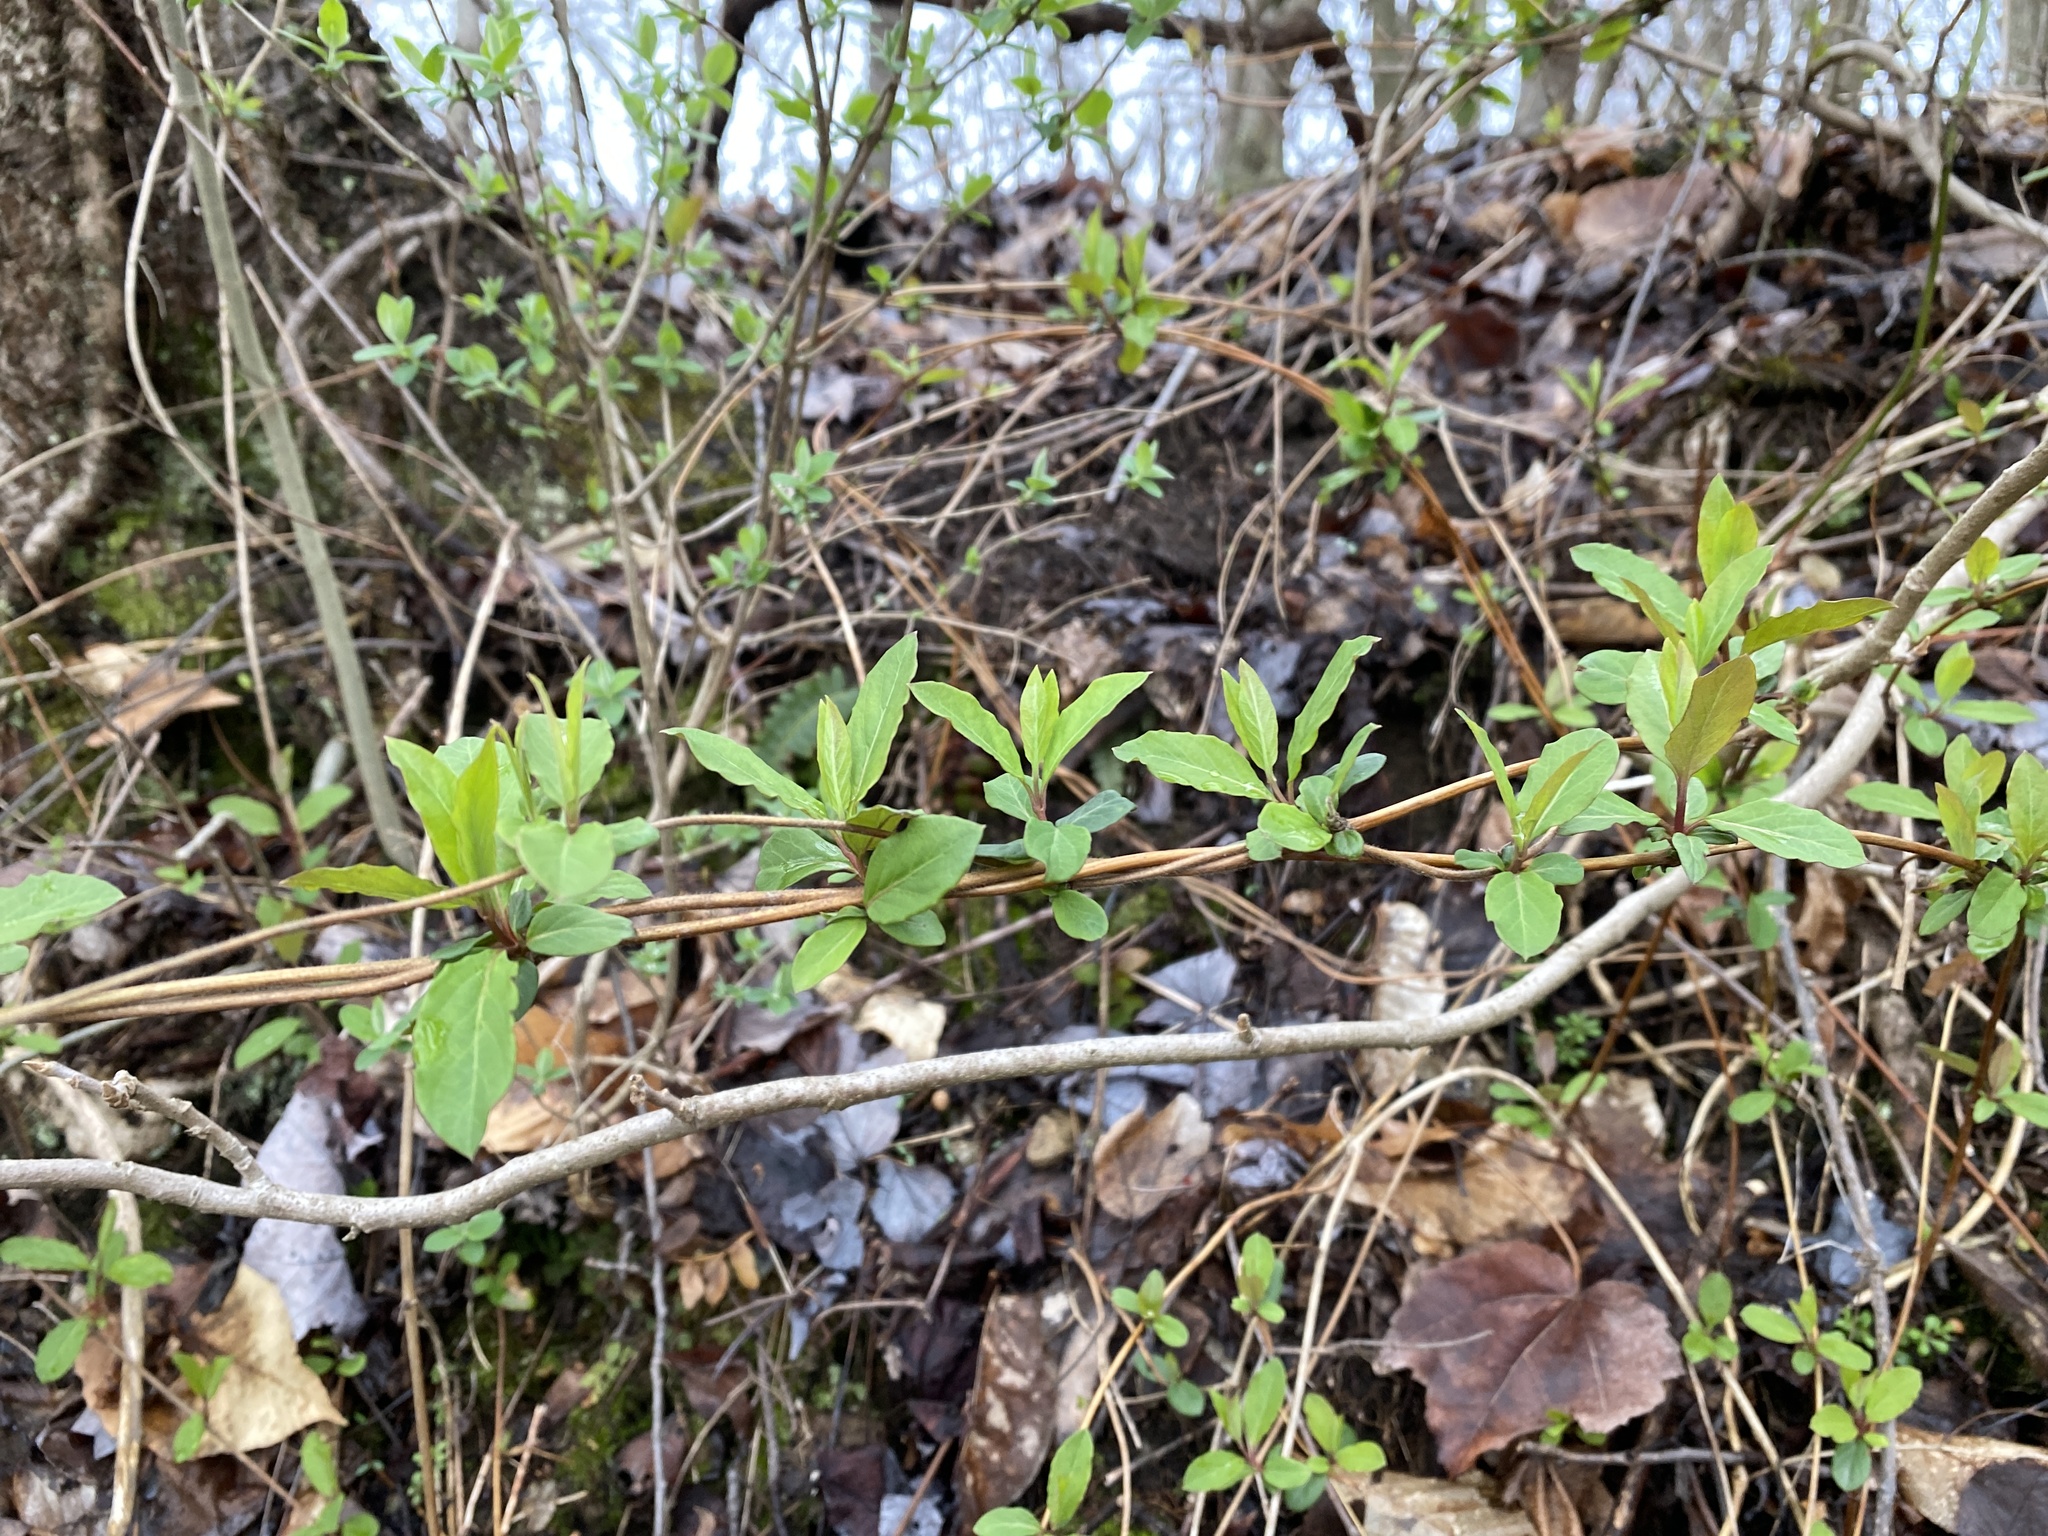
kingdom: Plantae
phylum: Tracheophyta
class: Magnoliopsida
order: Dipsacales
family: Caprifoliaceae
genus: Lonicera
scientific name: Lonicera japonica
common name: Japanese honeysuckle
